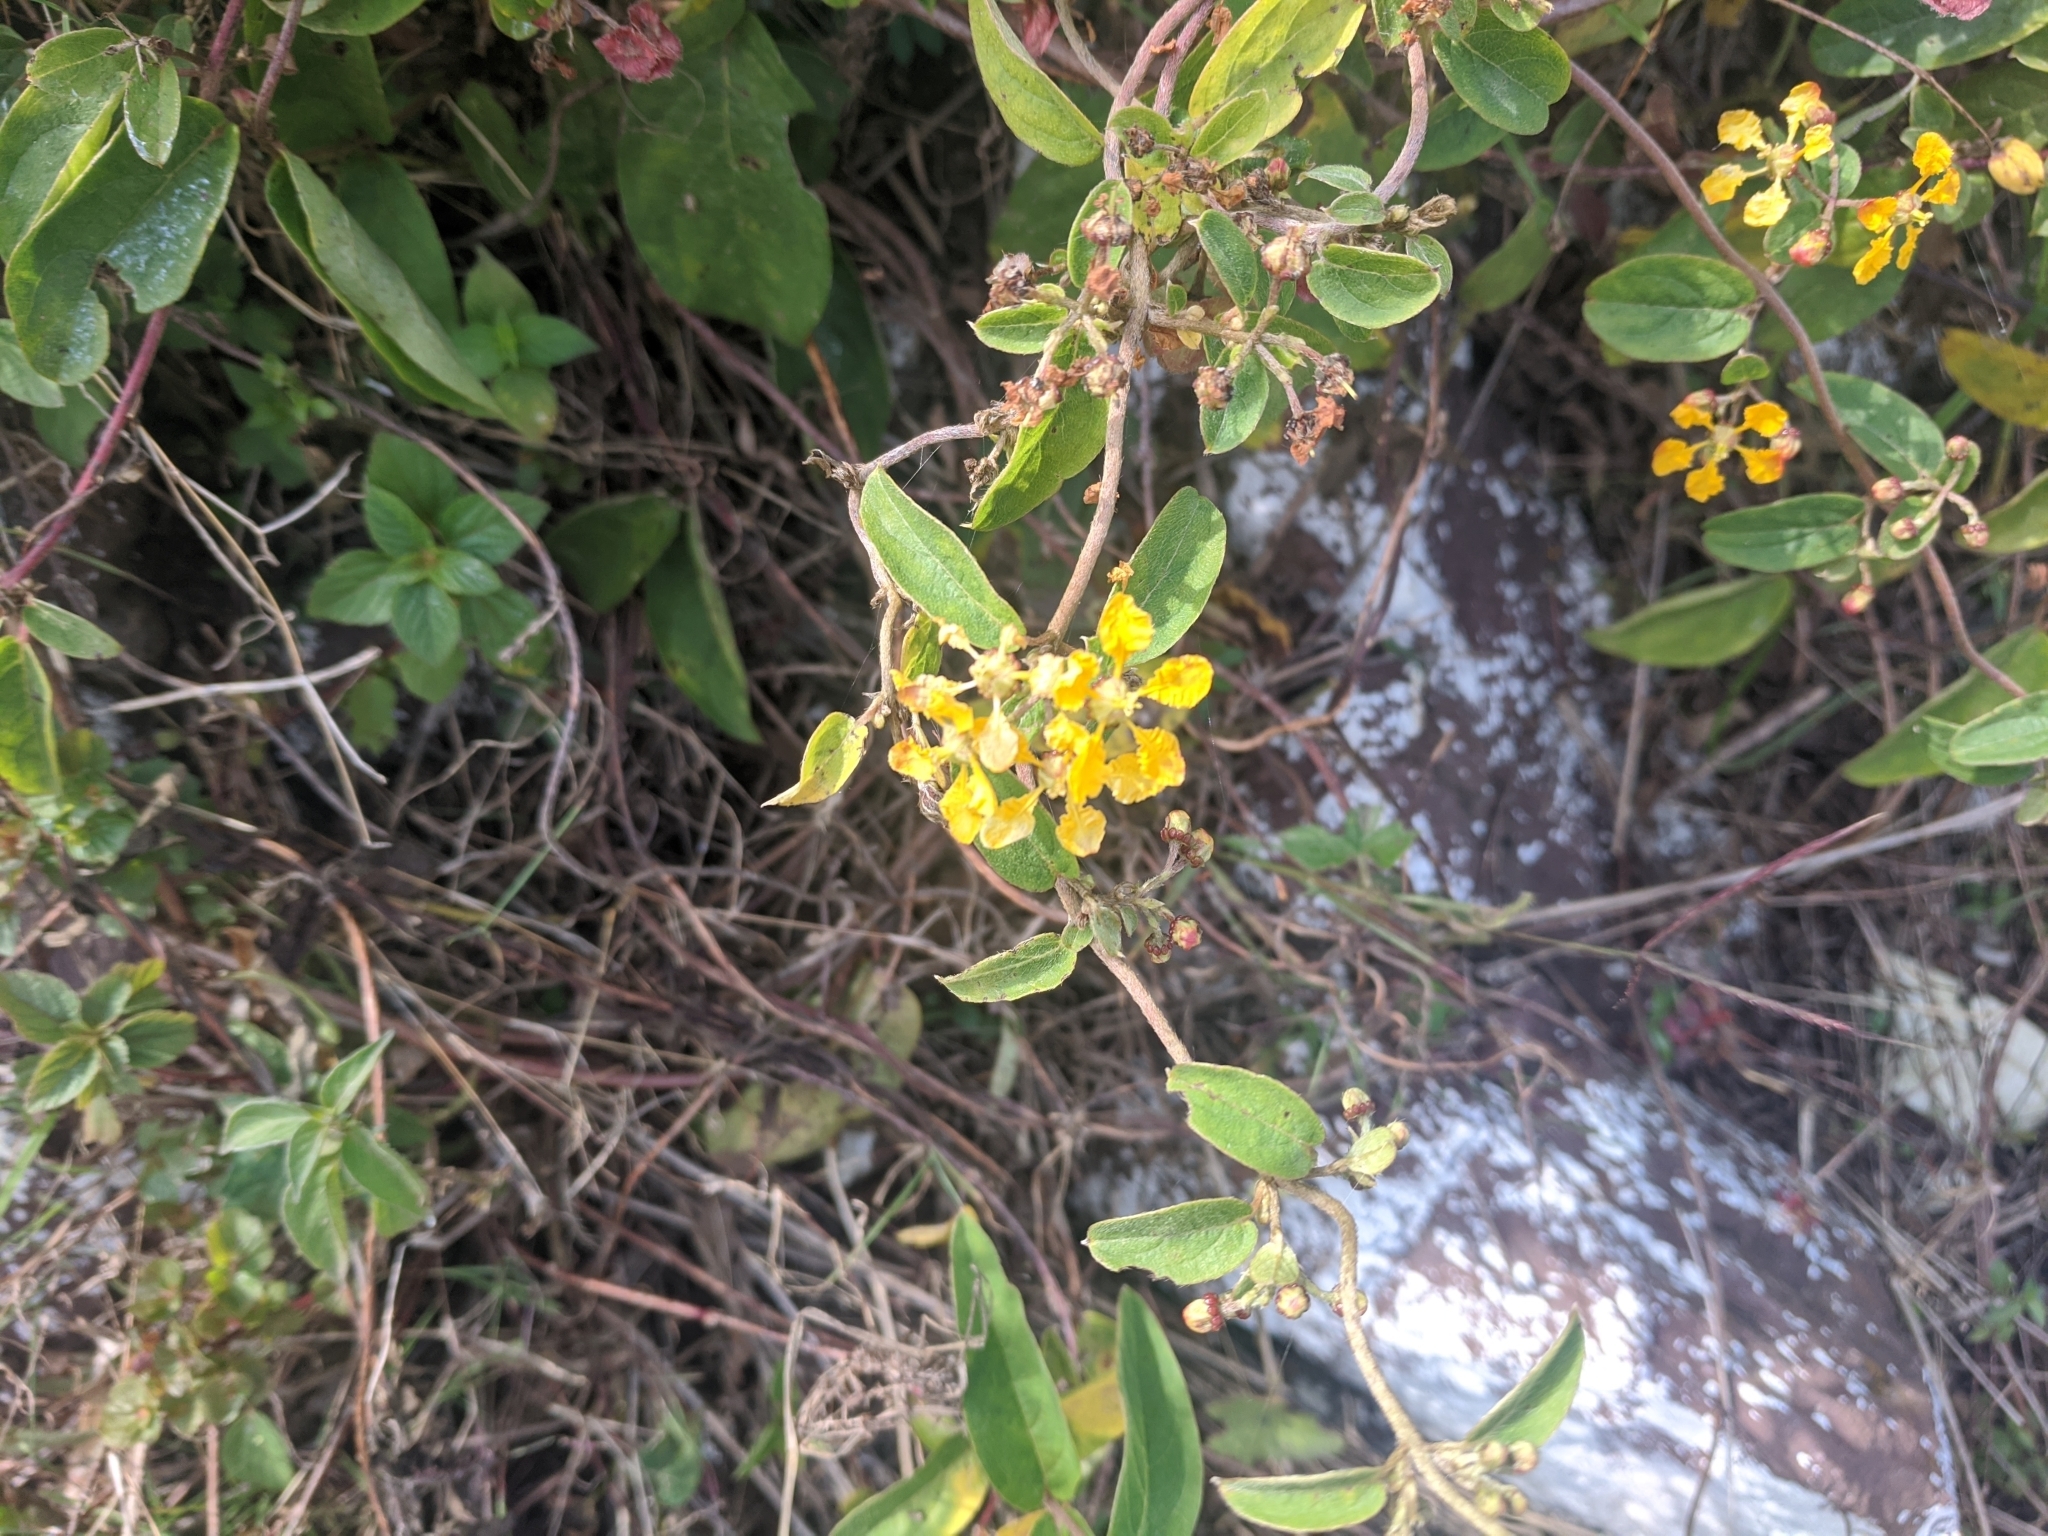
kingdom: Plantae
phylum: Tracheophyta
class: Magnoliopsida
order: Malpighiales
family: Malpighiaceae
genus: Gaudichaudia
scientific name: Gaudichaudia cynanchoides
